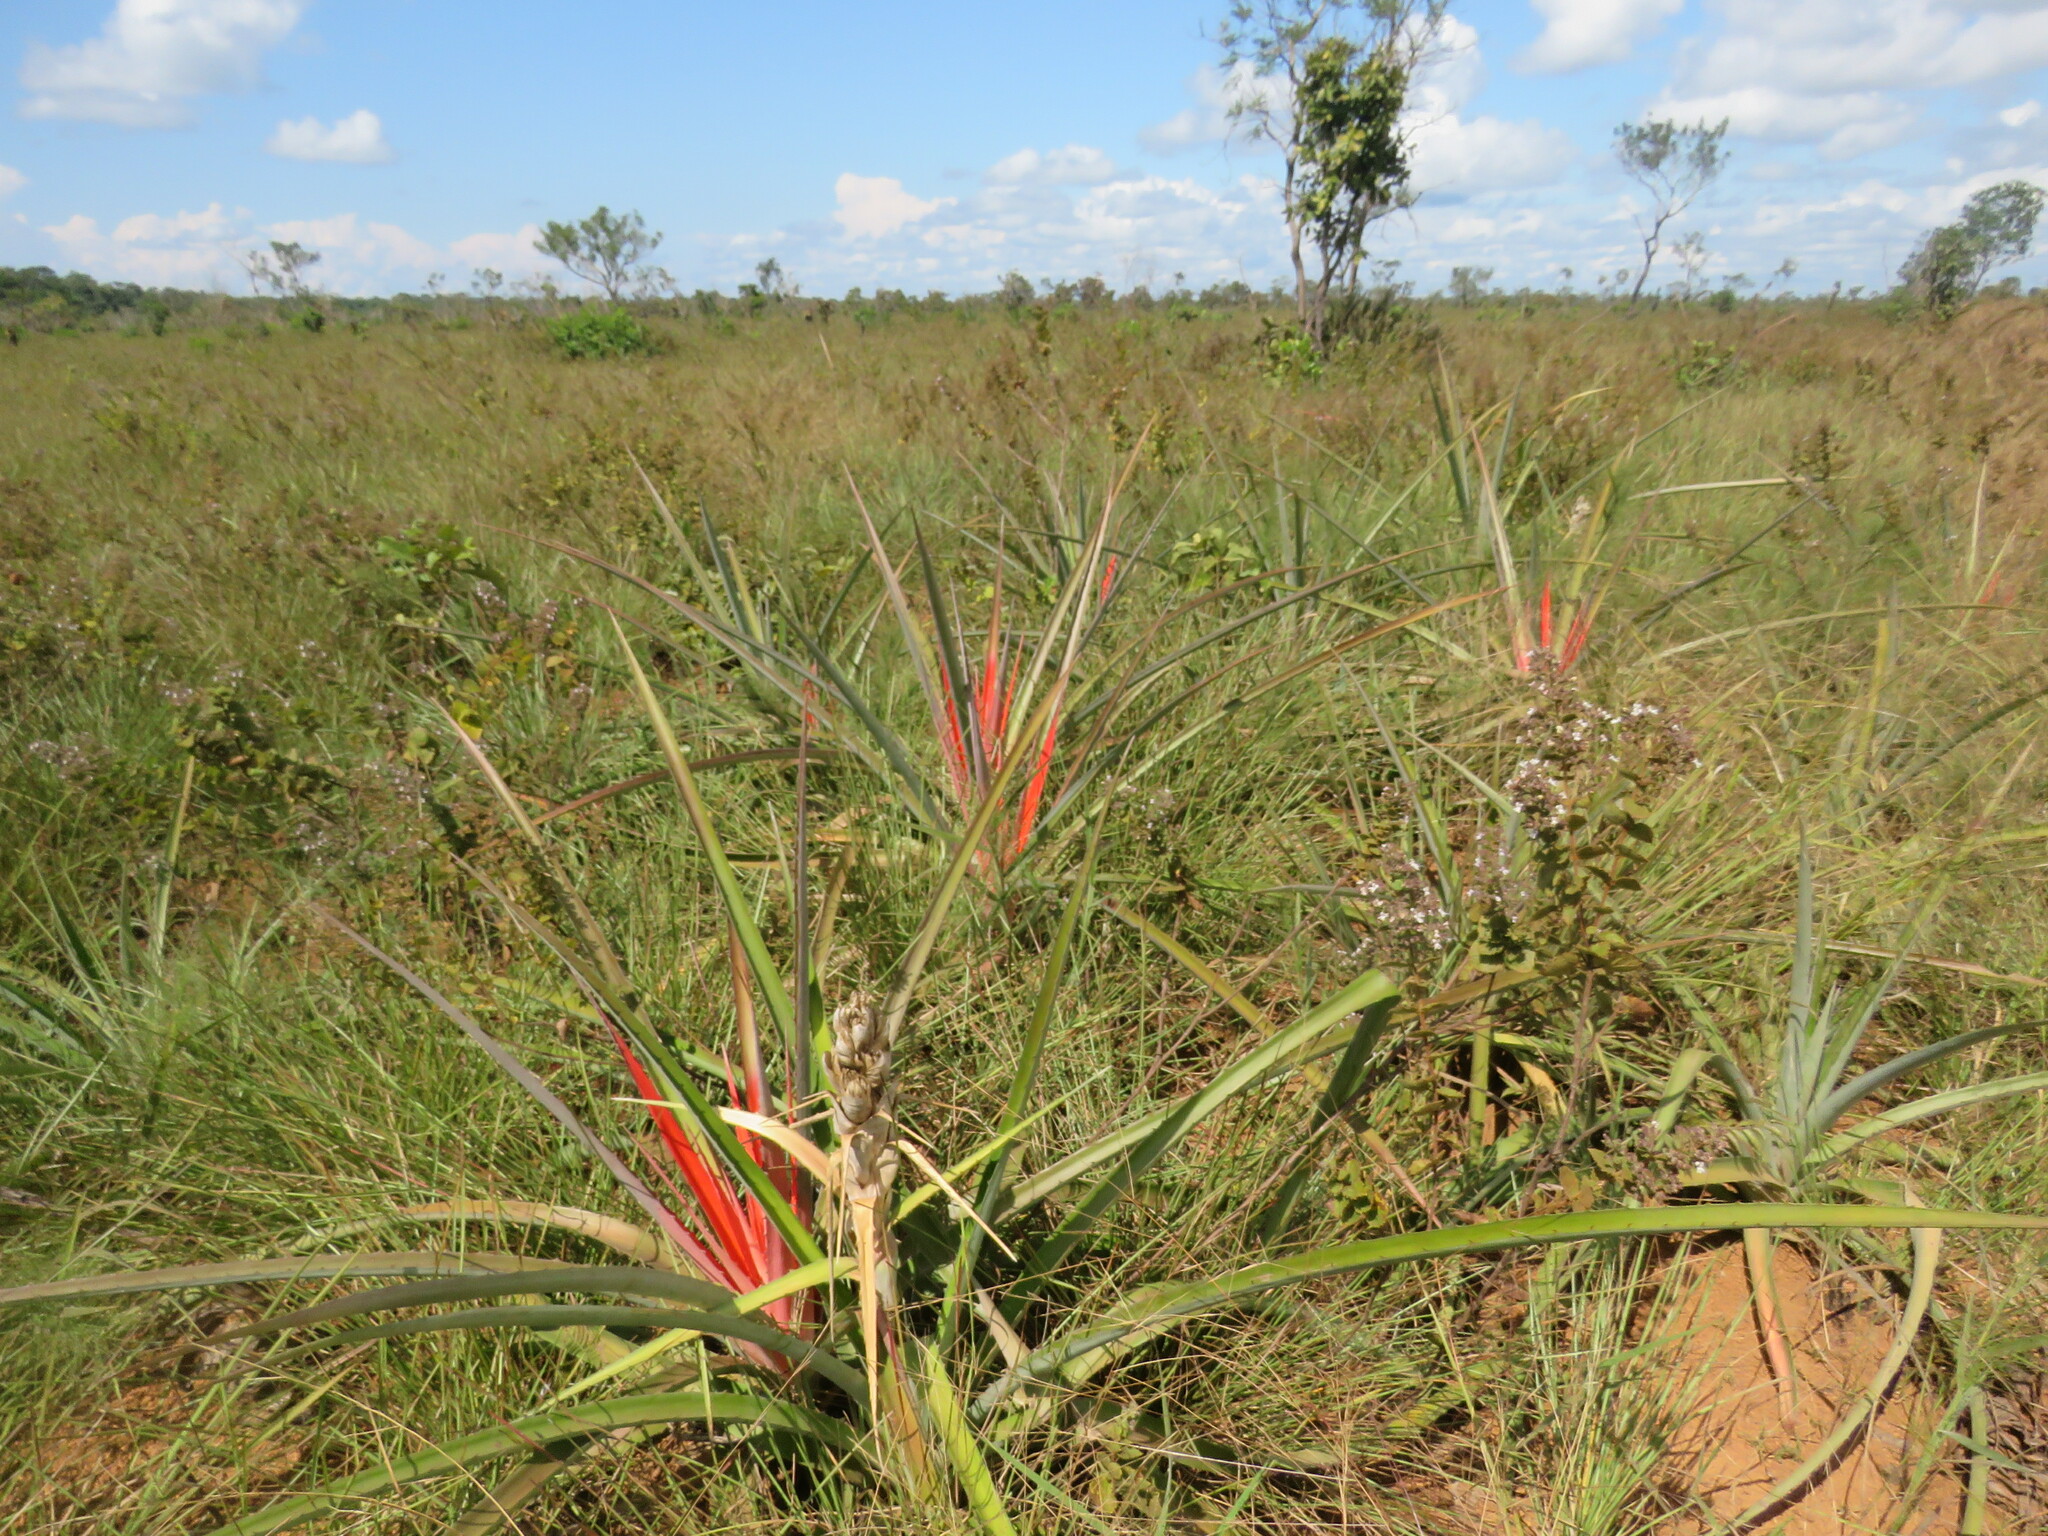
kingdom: Plantae
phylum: Tracheophyta
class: Liliopsida
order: Poales
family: Bromeliaceae
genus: Bromelia
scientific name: Bromelia serra
